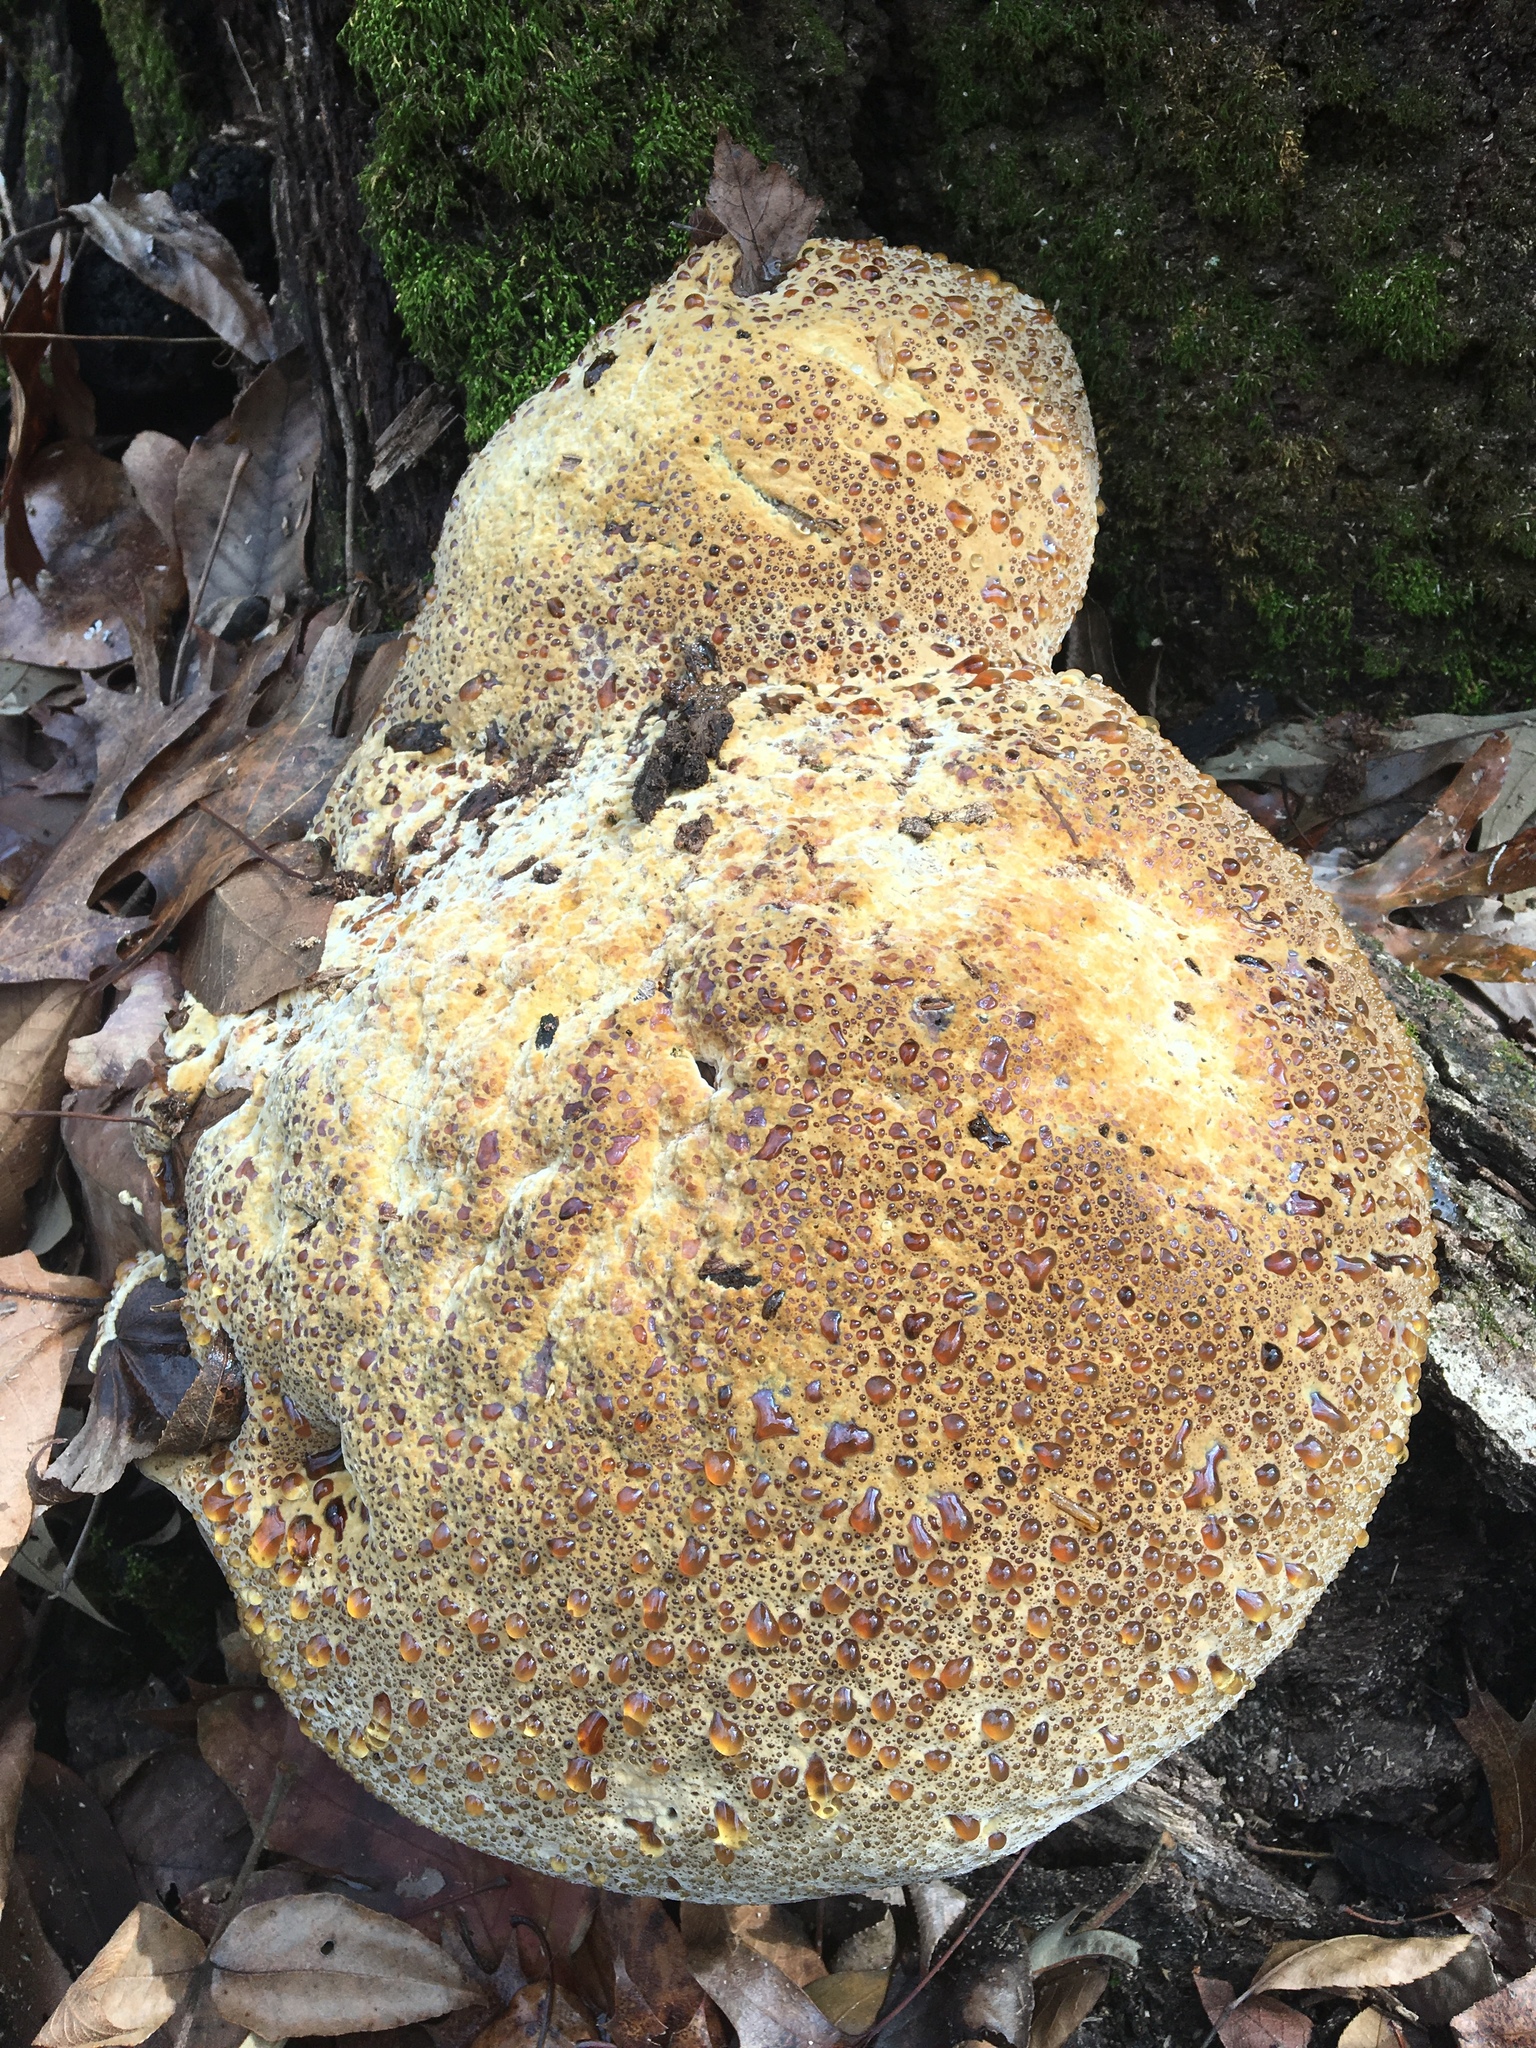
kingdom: Fungi
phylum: Basidiomycota
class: Agaricomycetes
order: Hymenochaetales
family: Hymenochaetaceae
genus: Pseudoinonotus
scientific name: Pseudoinonotus dryadeus
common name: Oak bracket
